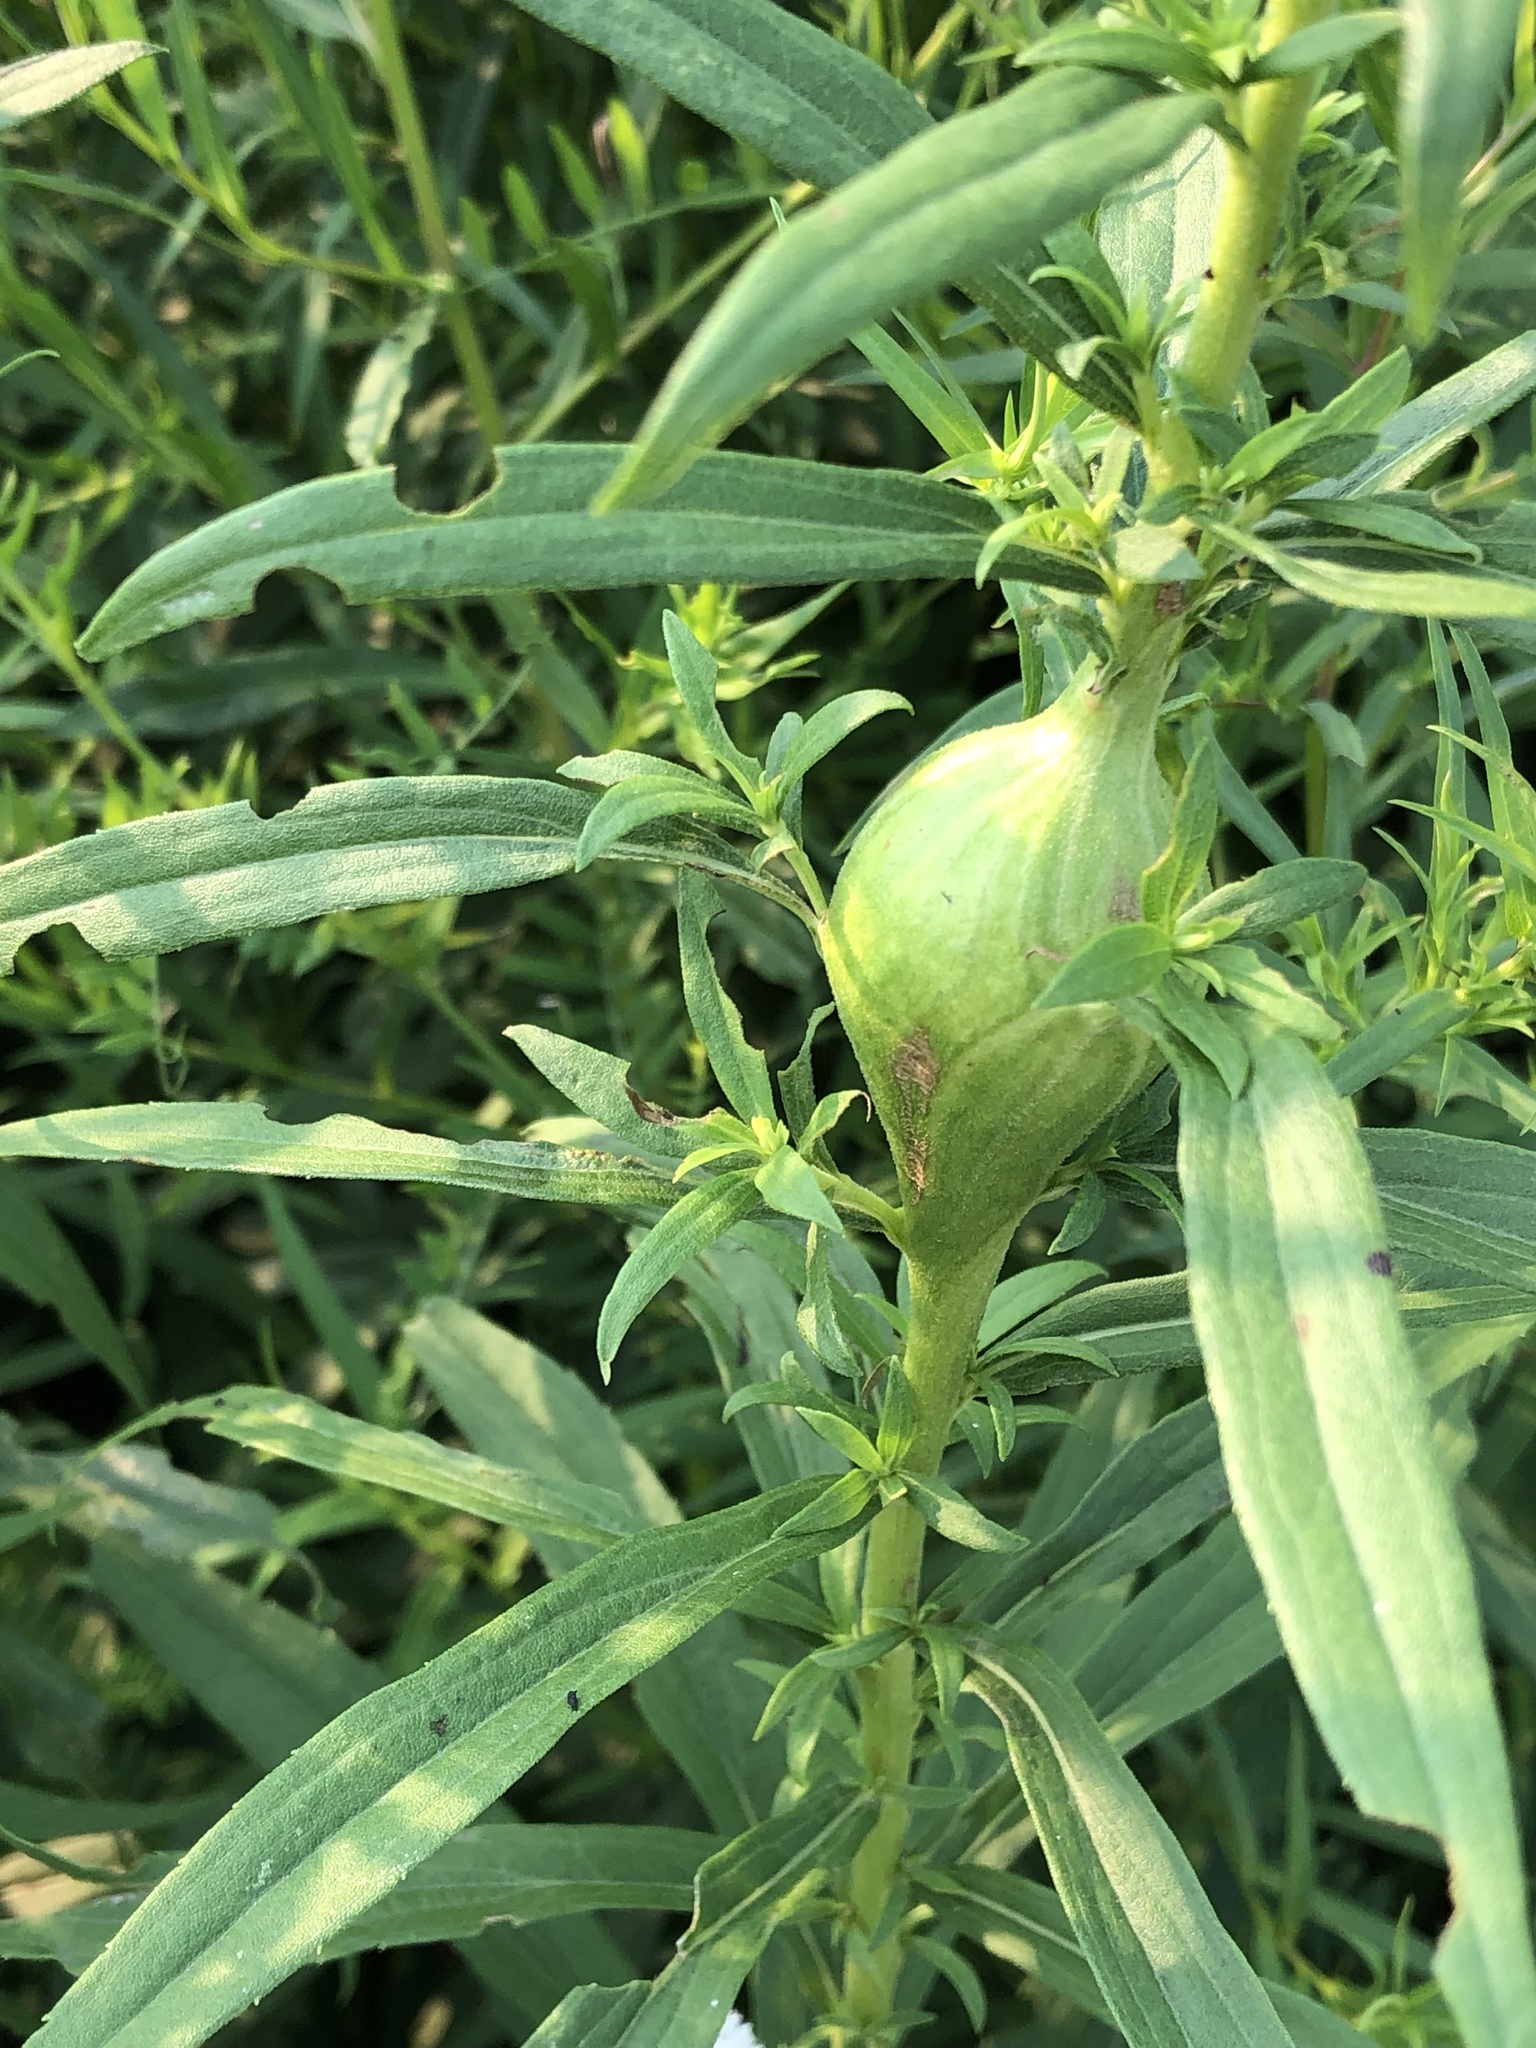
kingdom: Animalia
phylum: Arthropoda
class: Insecta
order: Diptera
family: Tephritidae
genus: Eurosta
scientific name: Eurosta solidaginis
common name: Goldenrod gall fly
